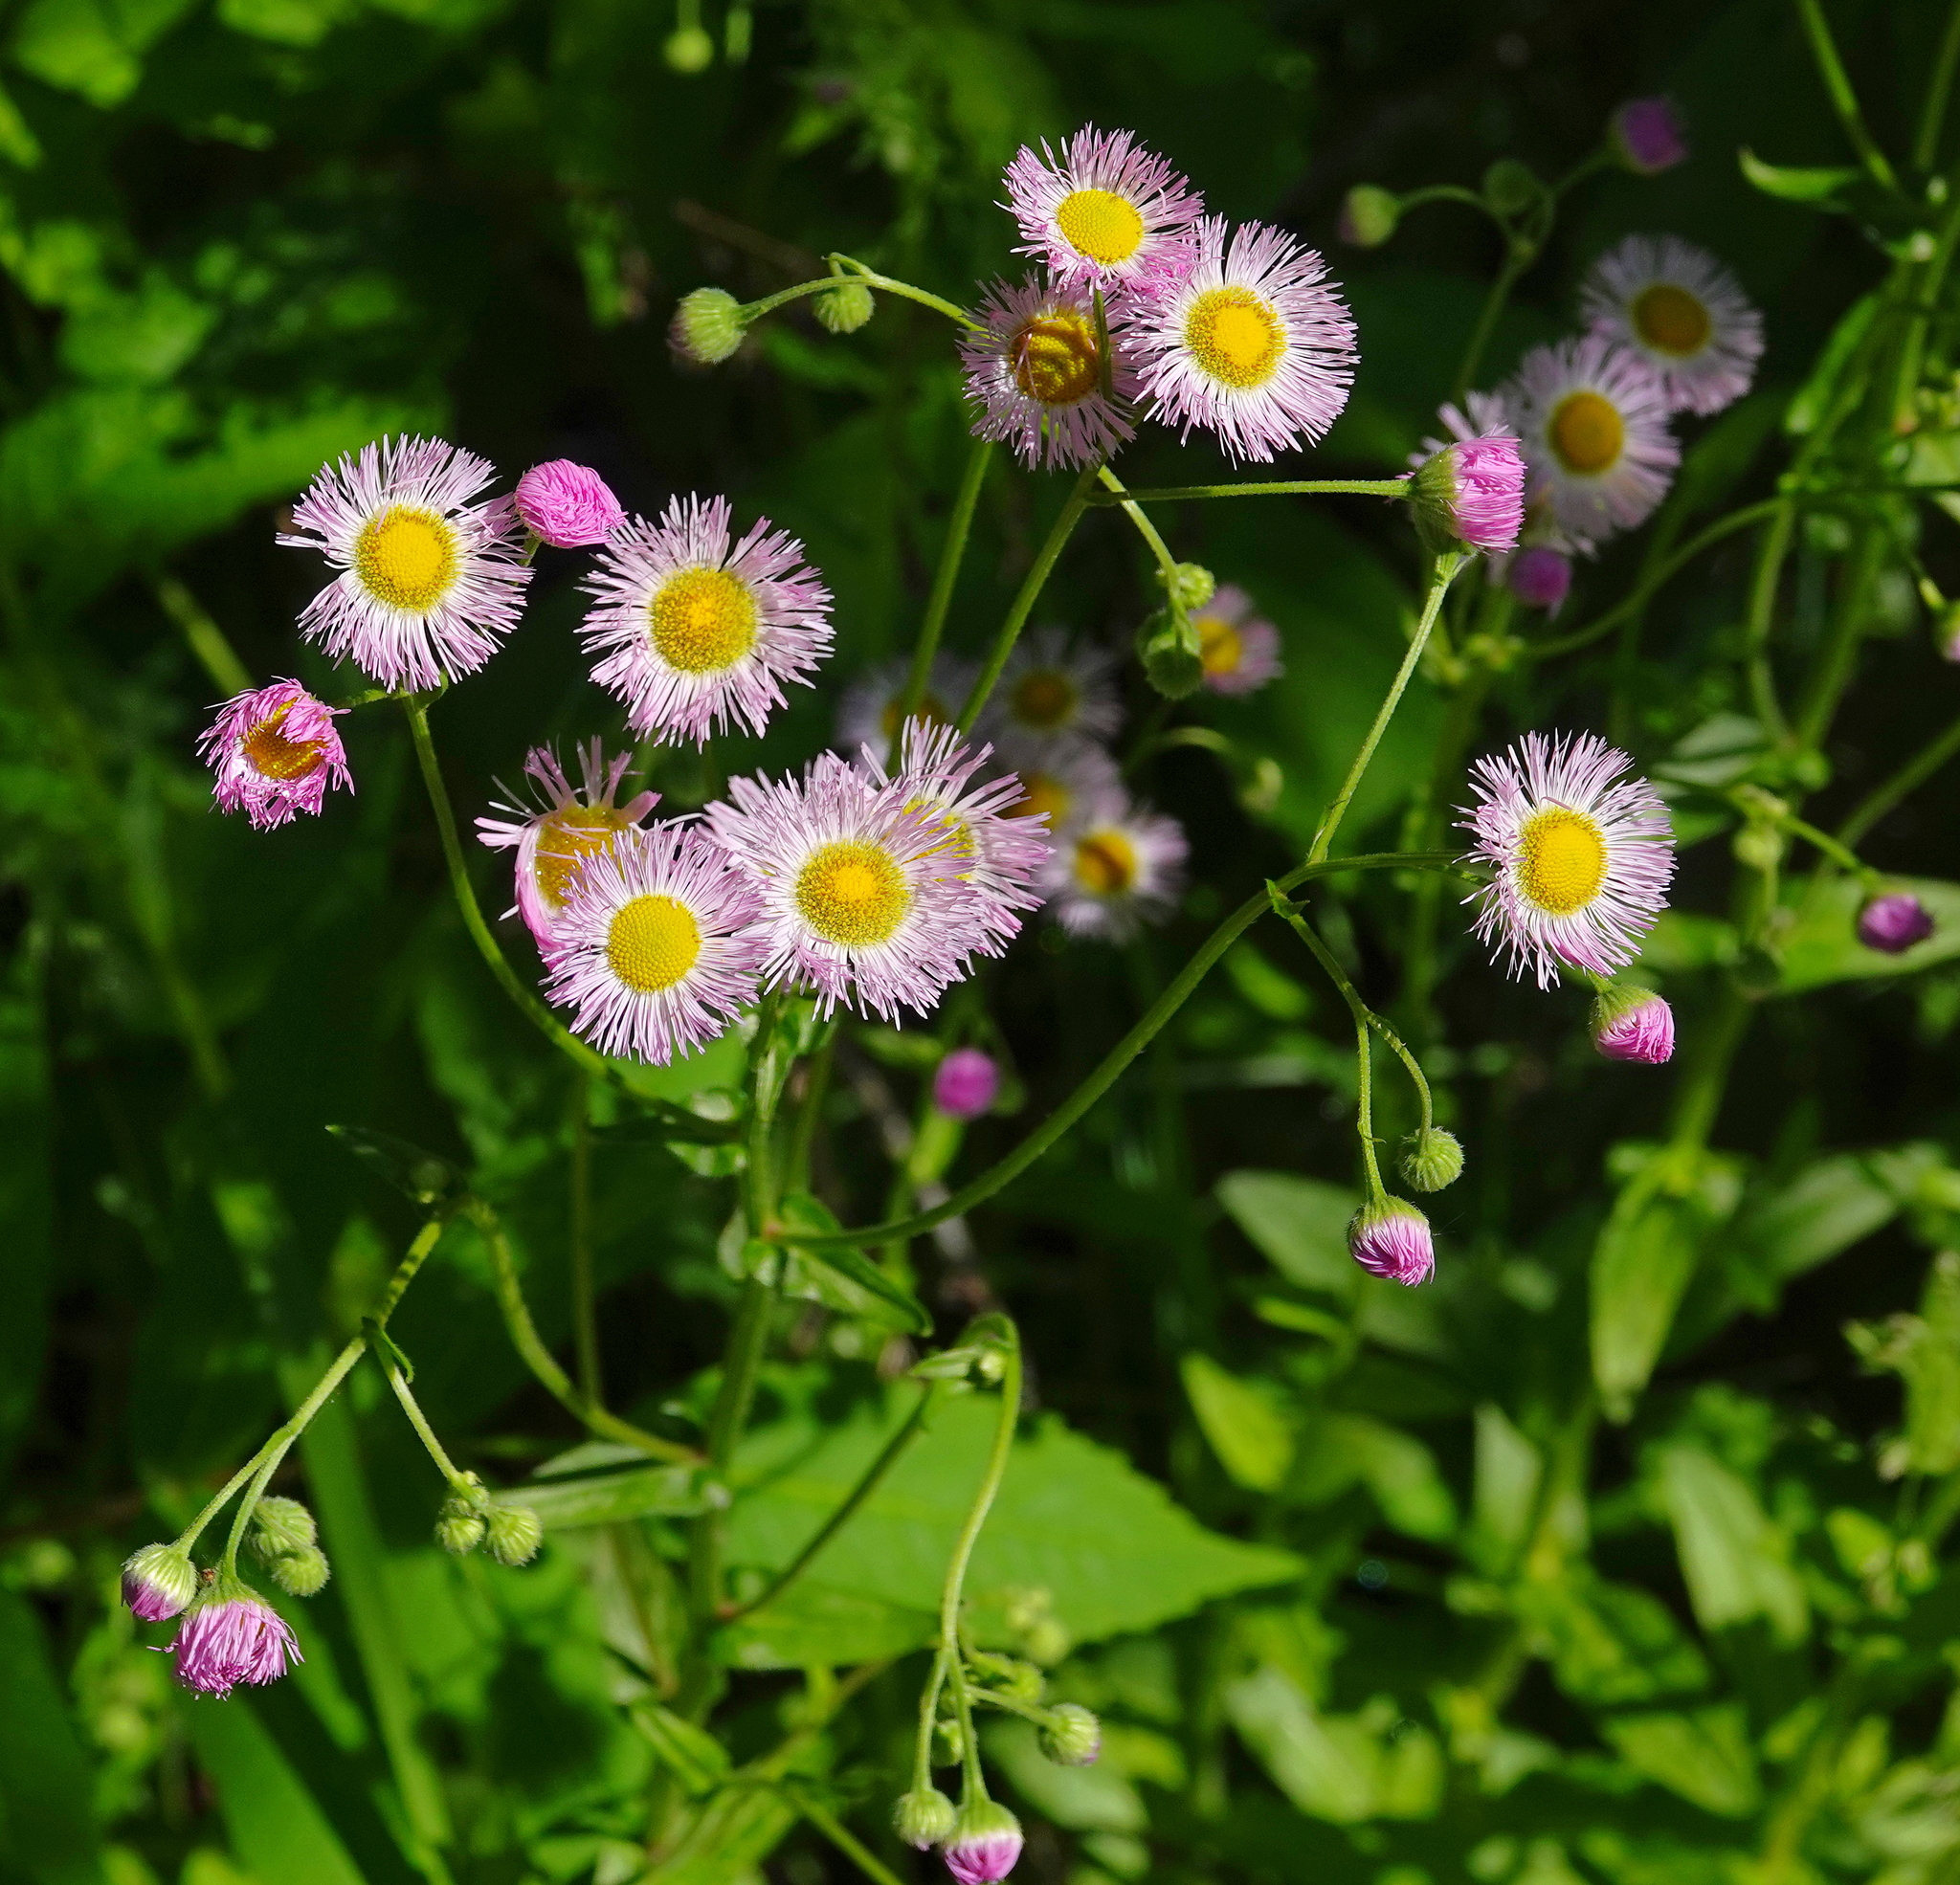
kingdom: Plantae
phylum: Tracheophyta
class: Magnoliopsida
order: Asterales
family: Asteraceae
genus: Erigeron
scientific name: Erigeron philadelphicus
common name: Robin's-plantain
